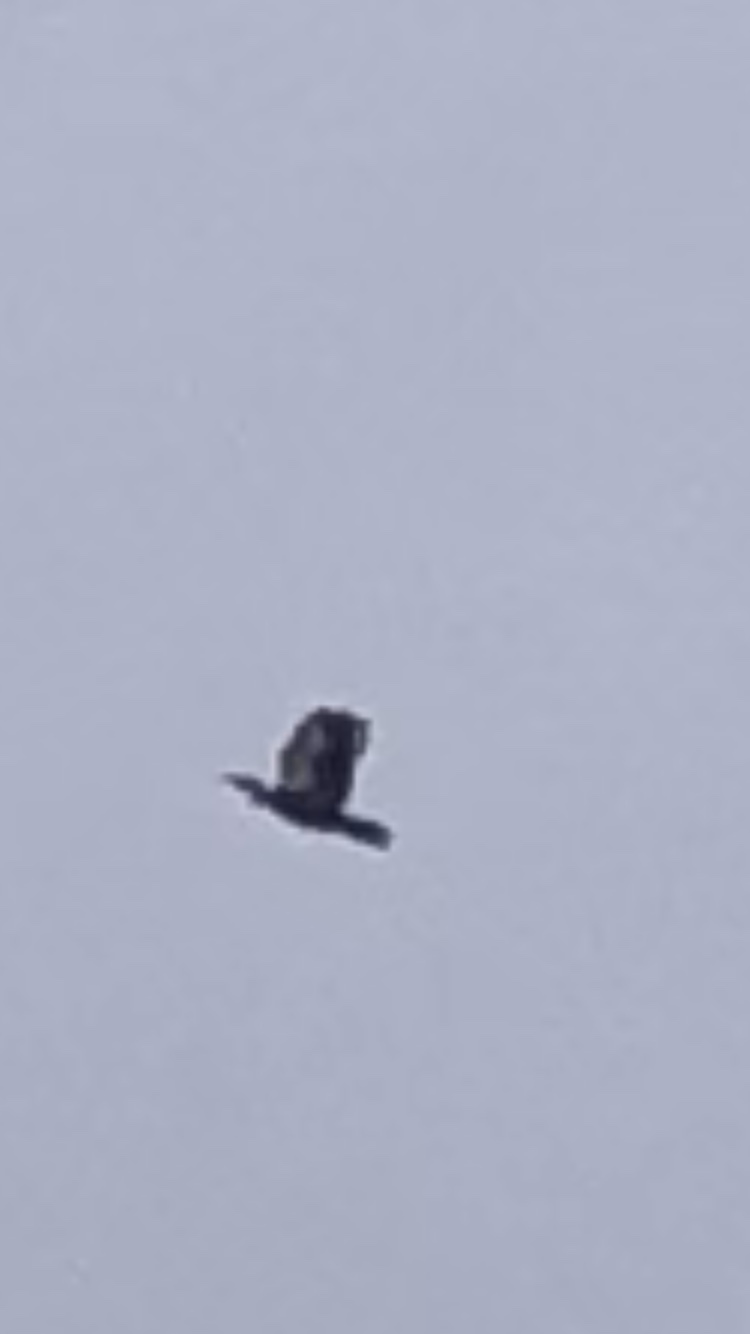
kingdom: Animalia
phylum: Chordata
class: Aves
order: Piciformes
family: Picidae
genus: Dryocopus
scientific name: Dryocopus pileatus
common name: Pileated woodpecker
